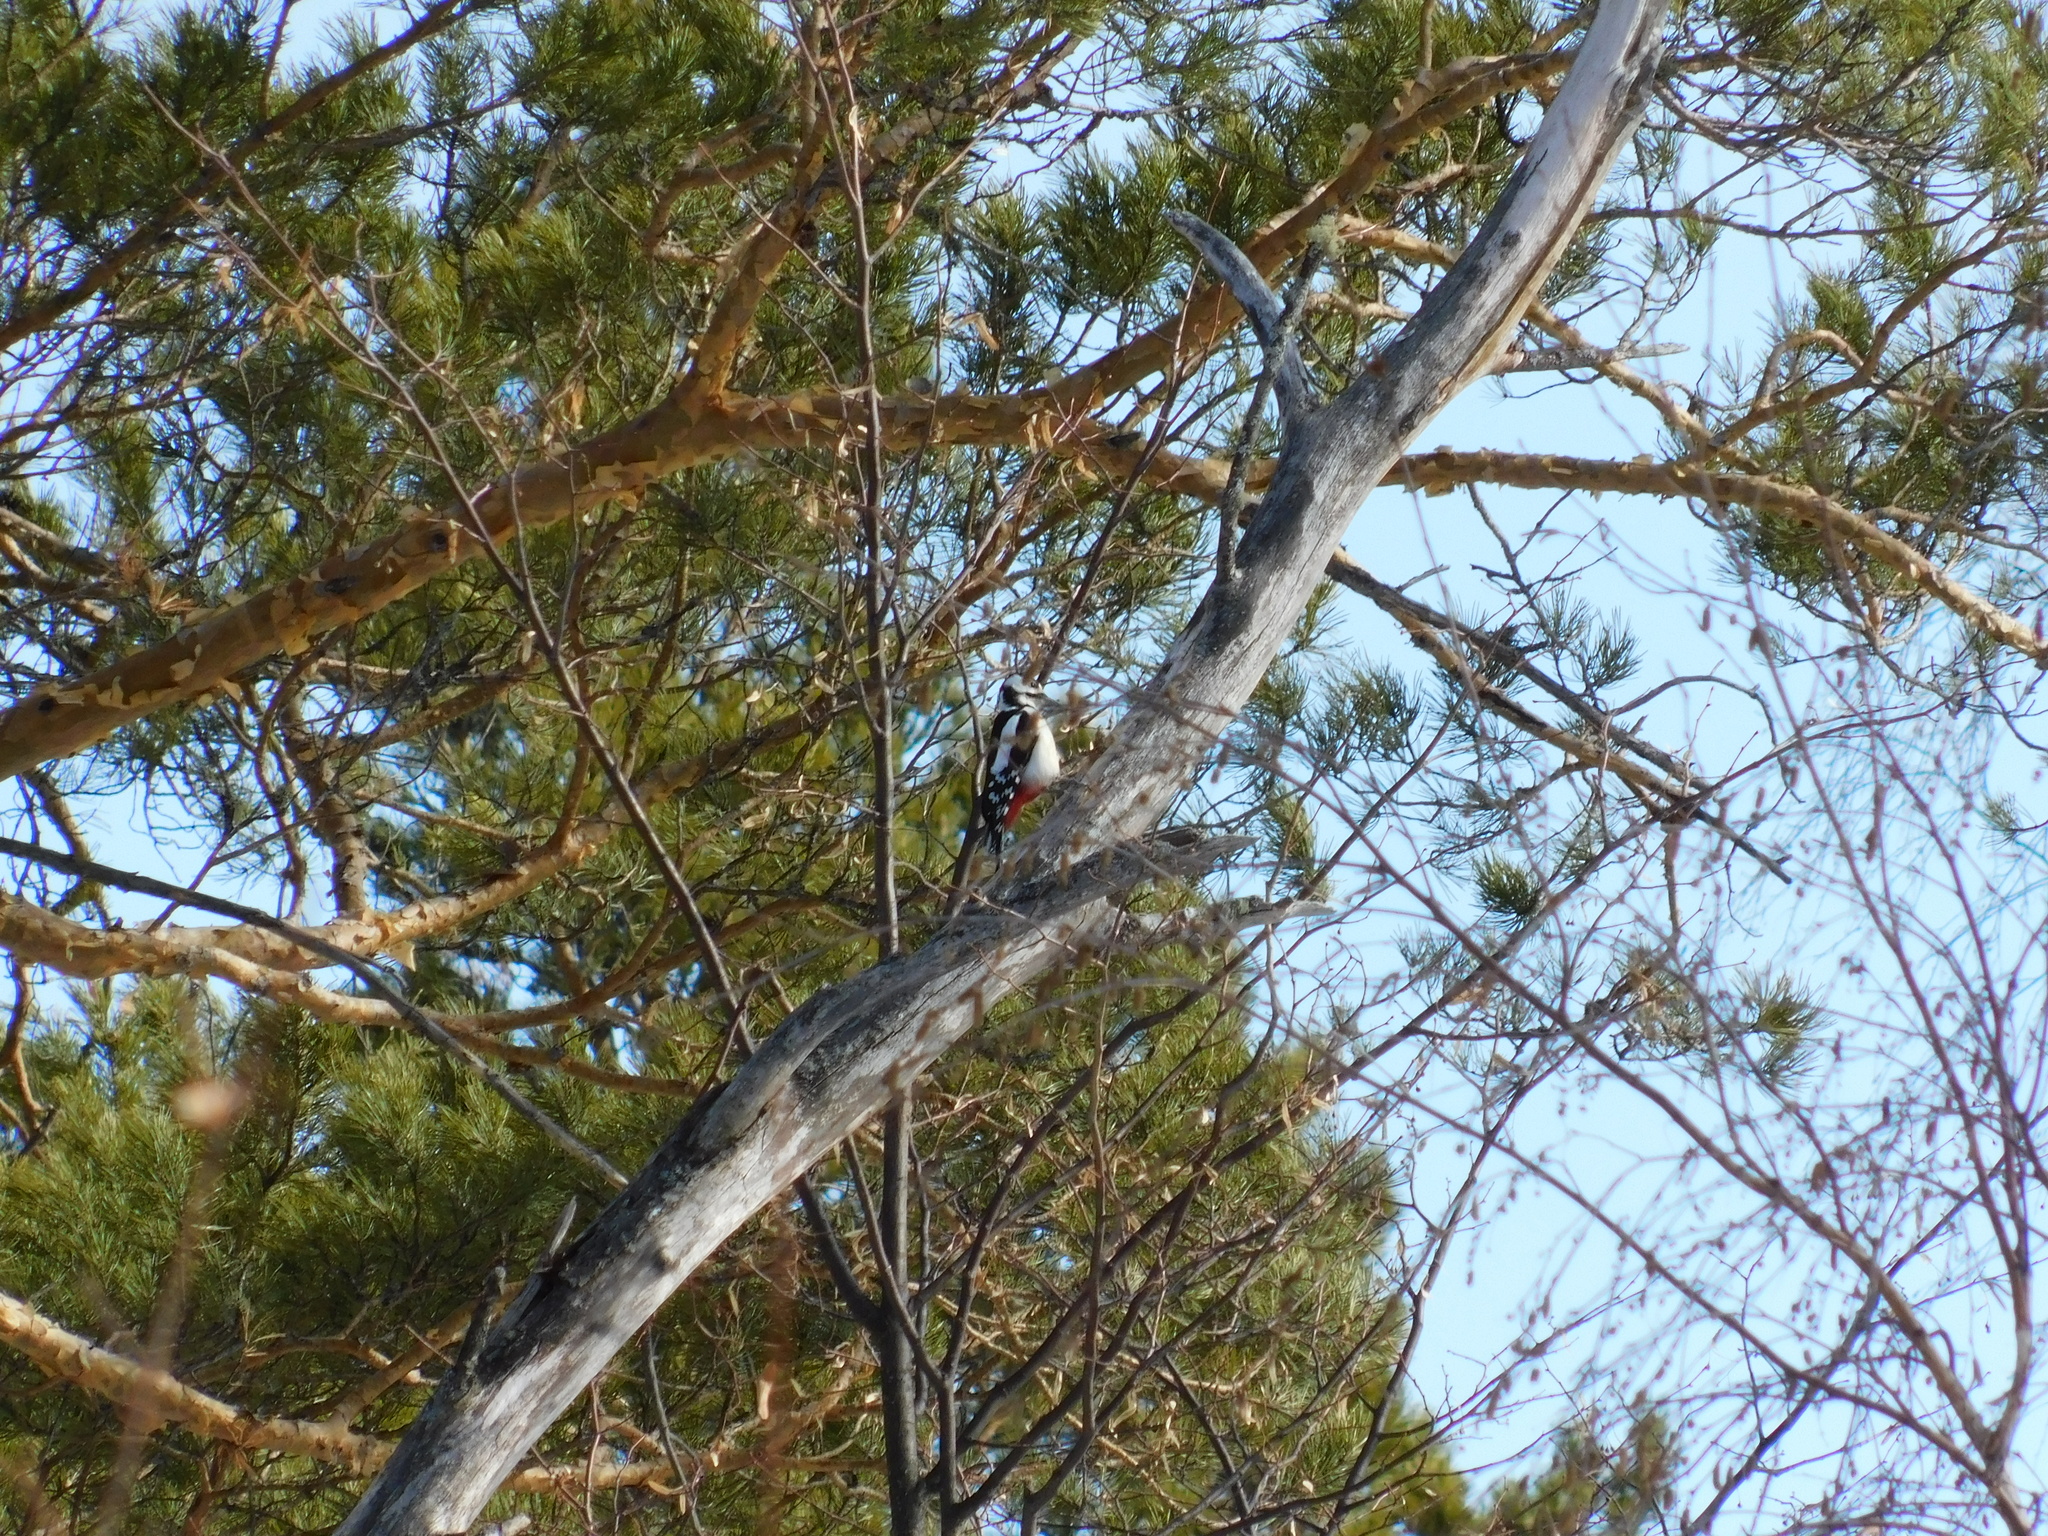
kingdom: Animalia
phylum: Chordata
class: Aves
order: Piciformes
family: Picidae
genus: Dendrocopos
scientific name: Dendrocopos major
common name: Great spotted woodpecker
